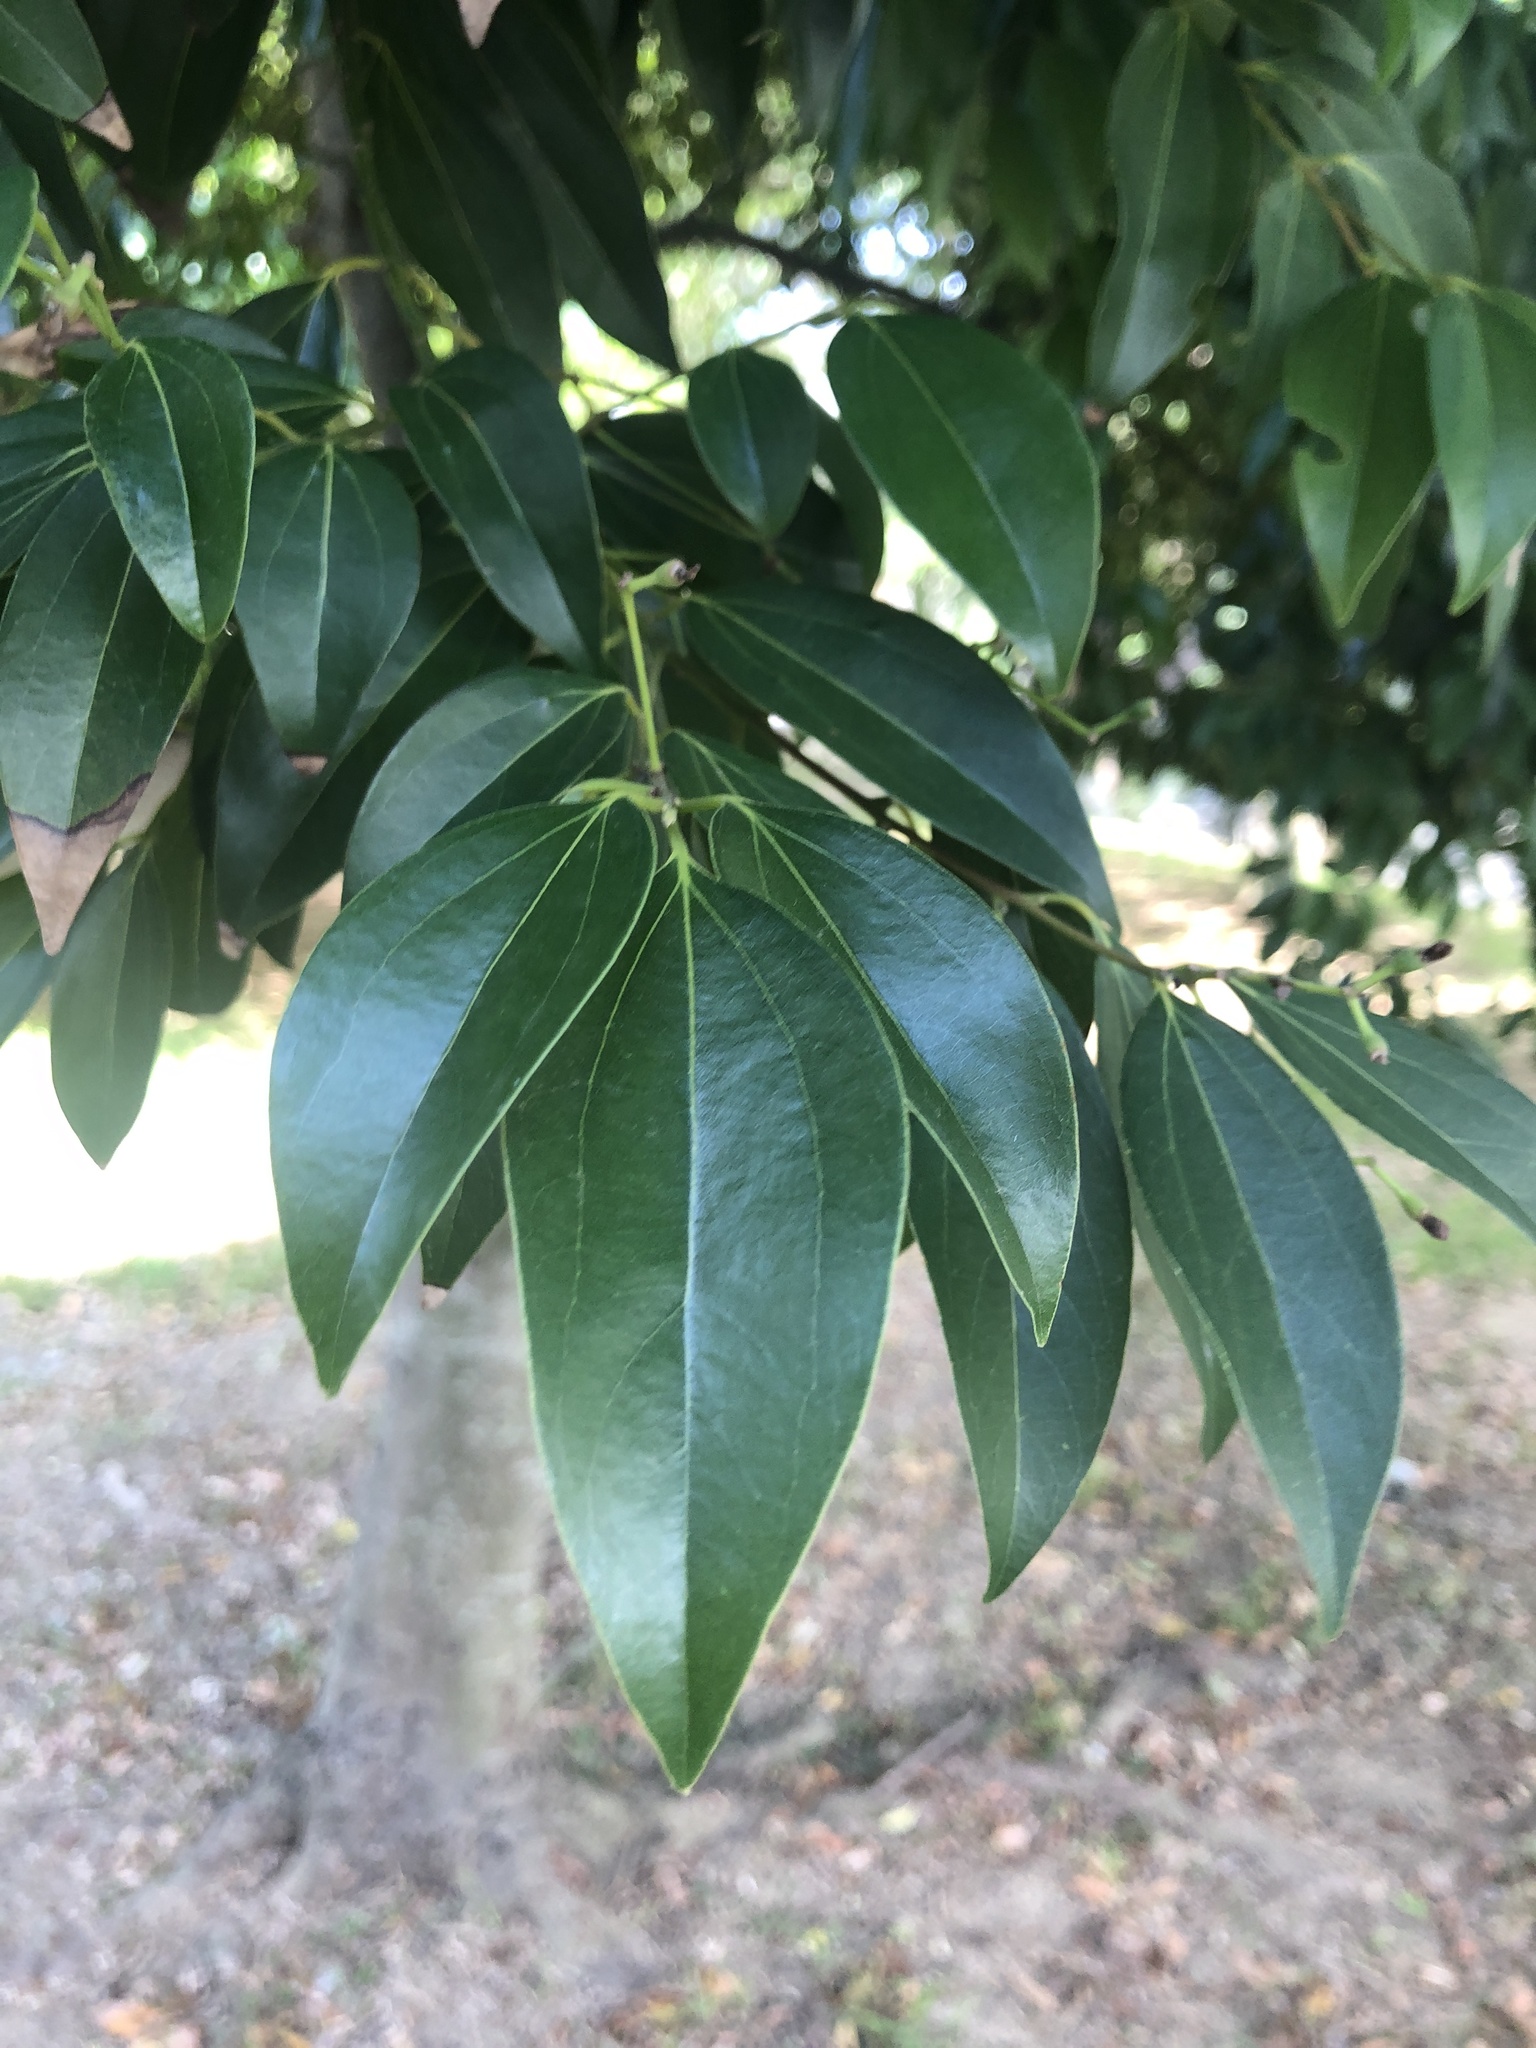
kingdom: Plantae
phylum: Tracheophyta
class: Magnoliopsida
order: Laurales
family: Lauraceae
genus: Cinnamomum
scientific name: Cinnamomum burmanni
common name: Padang cassia
